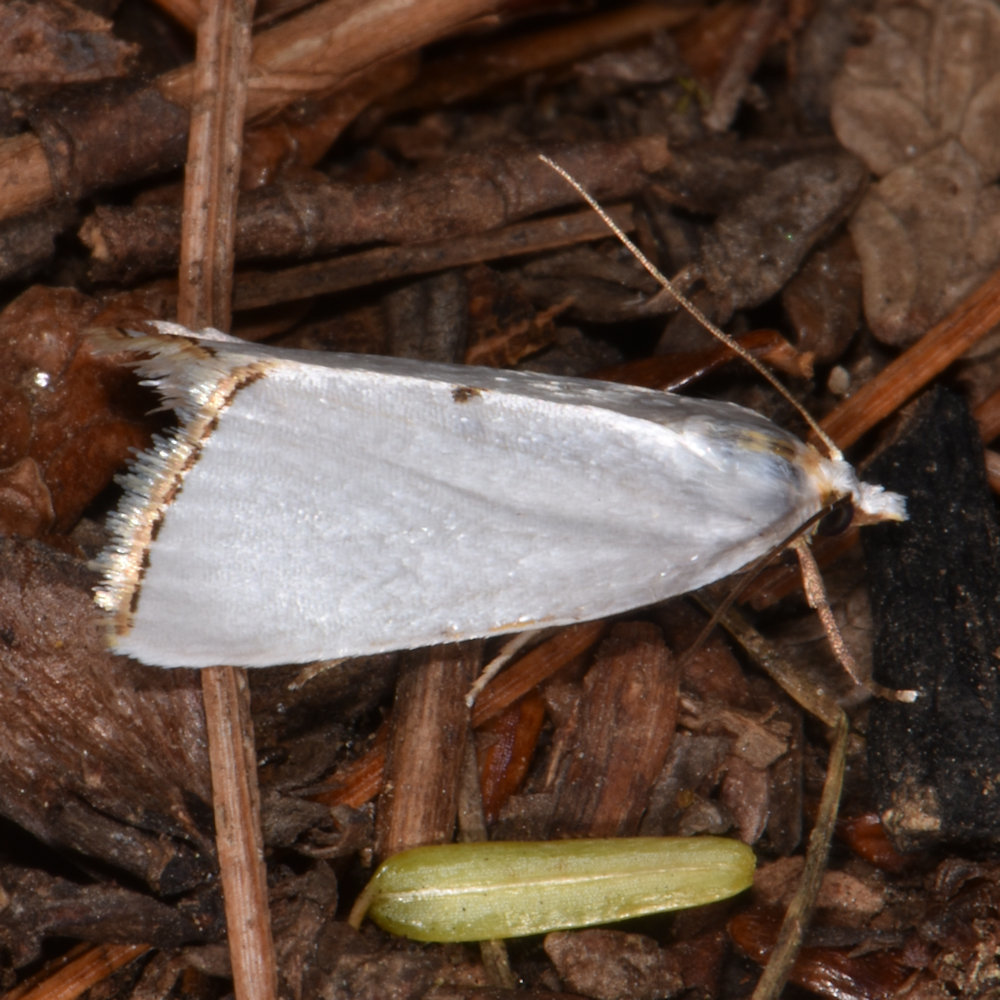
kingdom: Animalia
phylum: Arthropoda
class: Insecta
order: Lepidoptera
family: Crambidae
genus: Argyria
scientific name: Argyria nivalis
